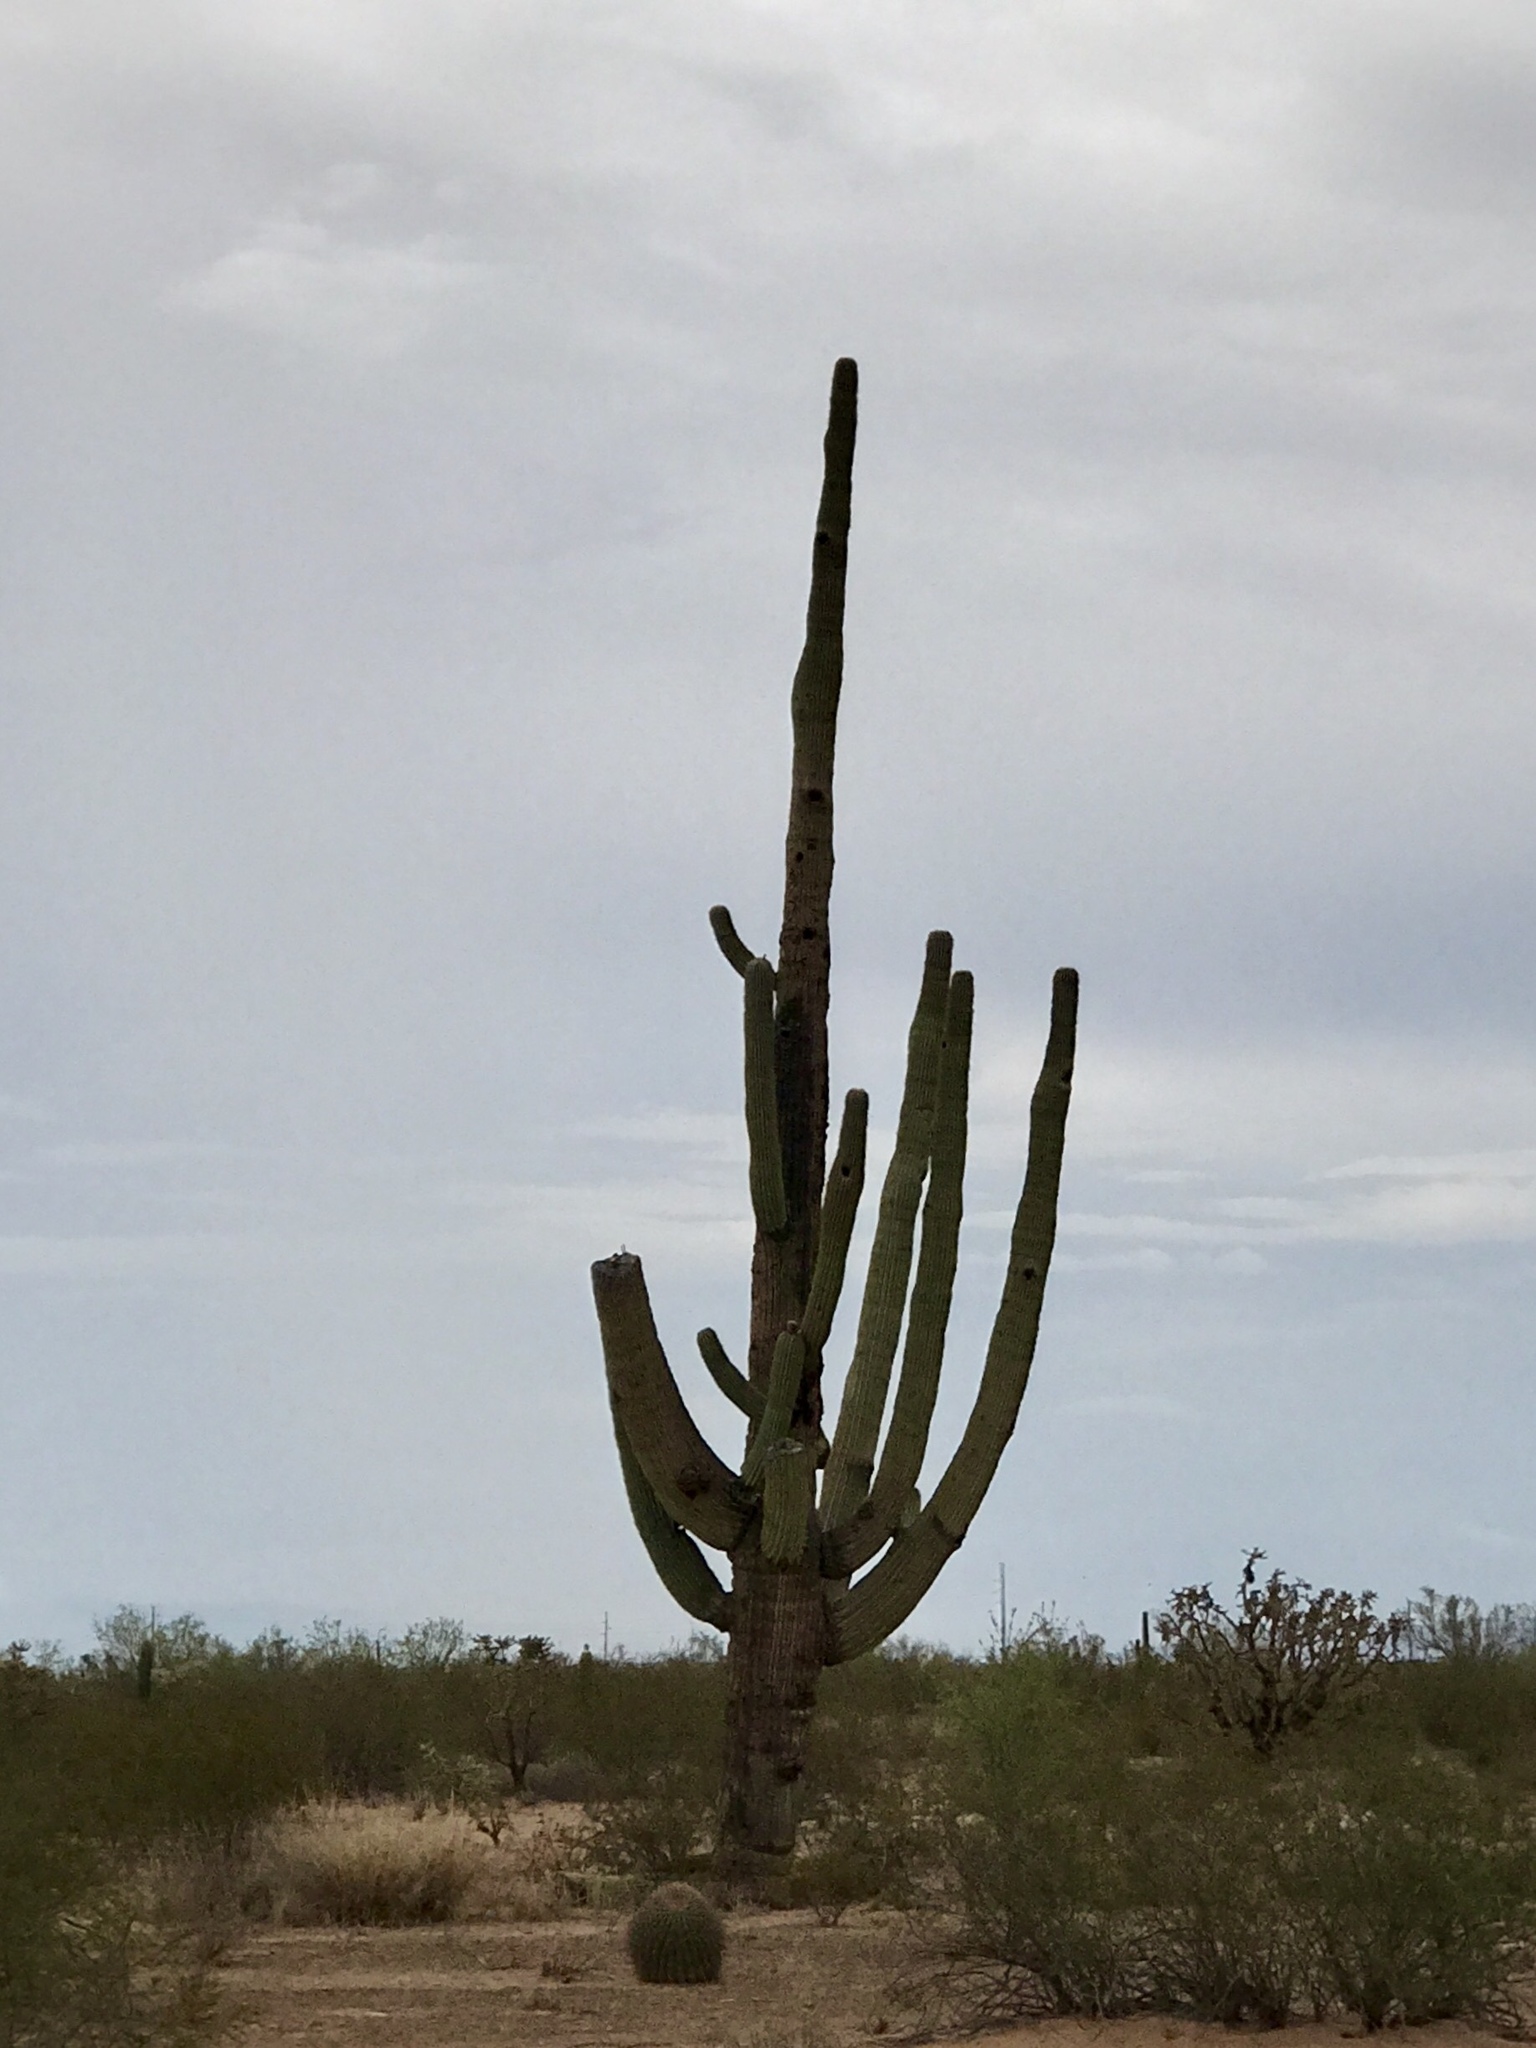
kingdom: Plantae
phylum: Tracheophyta
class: Magnoliopsida
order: Caryophyllales
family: Cactaceae
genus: Carnegiea
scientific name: Carnegiea gigantea
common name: Saguaro
